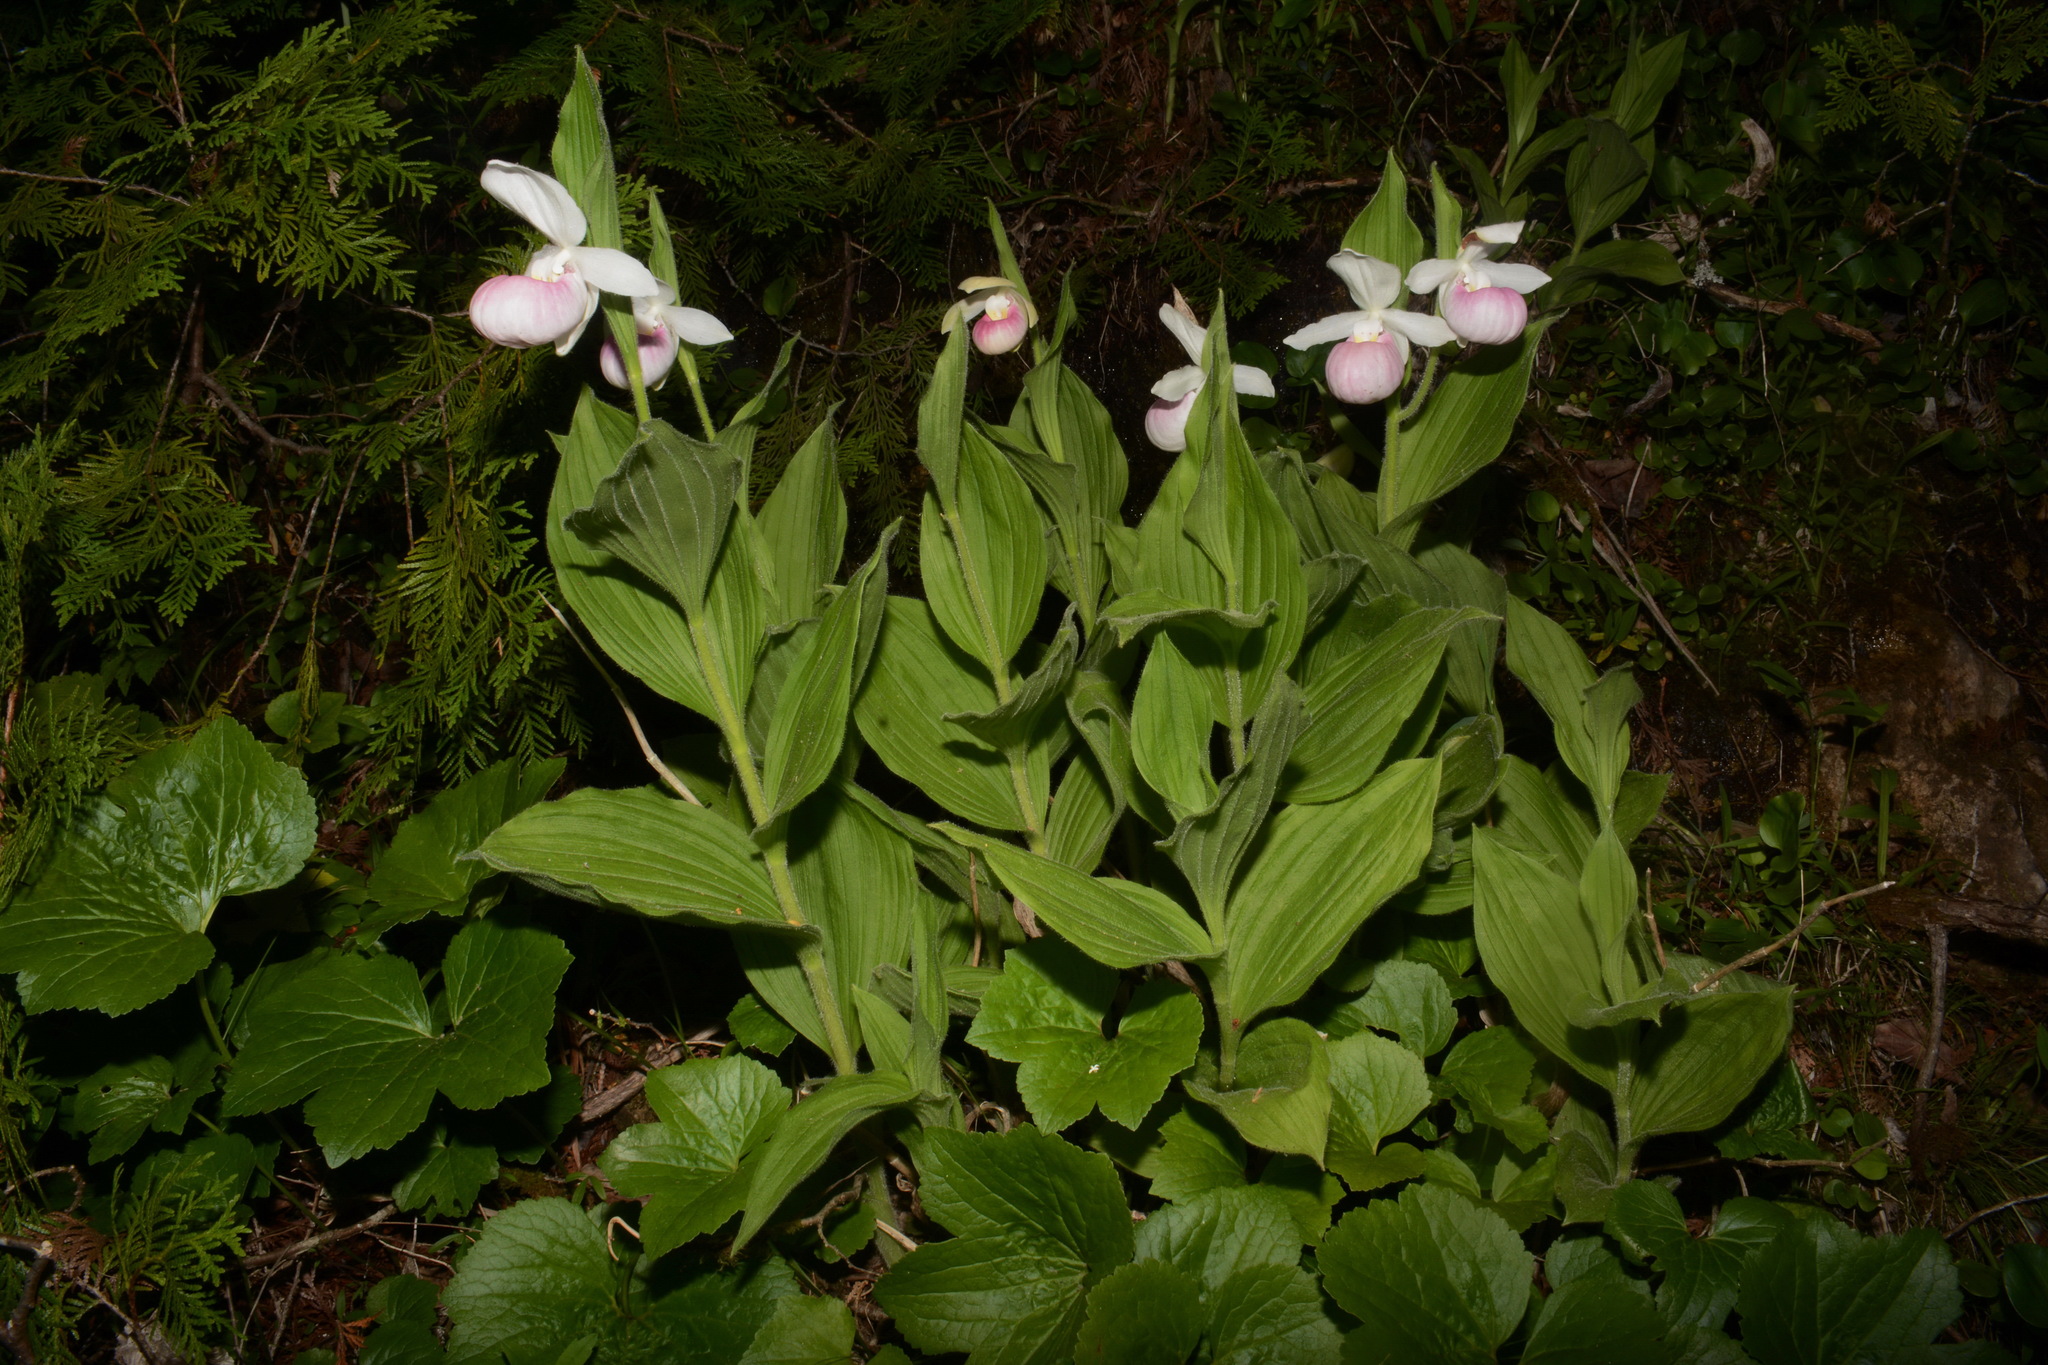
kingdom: Plantae
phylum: Tracheophyta
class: Liliopsida
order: Asparagales
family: Orchidaceae
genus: Cypripedium
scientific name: Cypripedium reginae
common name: Queen lady's-slipper
